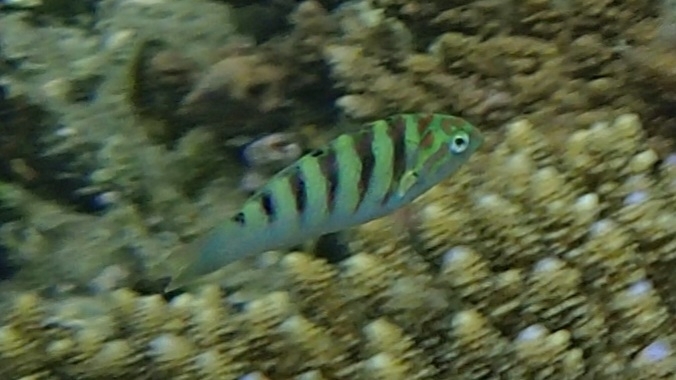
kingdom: Animalia
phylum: Chordata
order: Perciformes
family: Labridae
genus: Thalassoma
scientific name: Thalassoma hardwicke
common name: Sixbar wrasse
